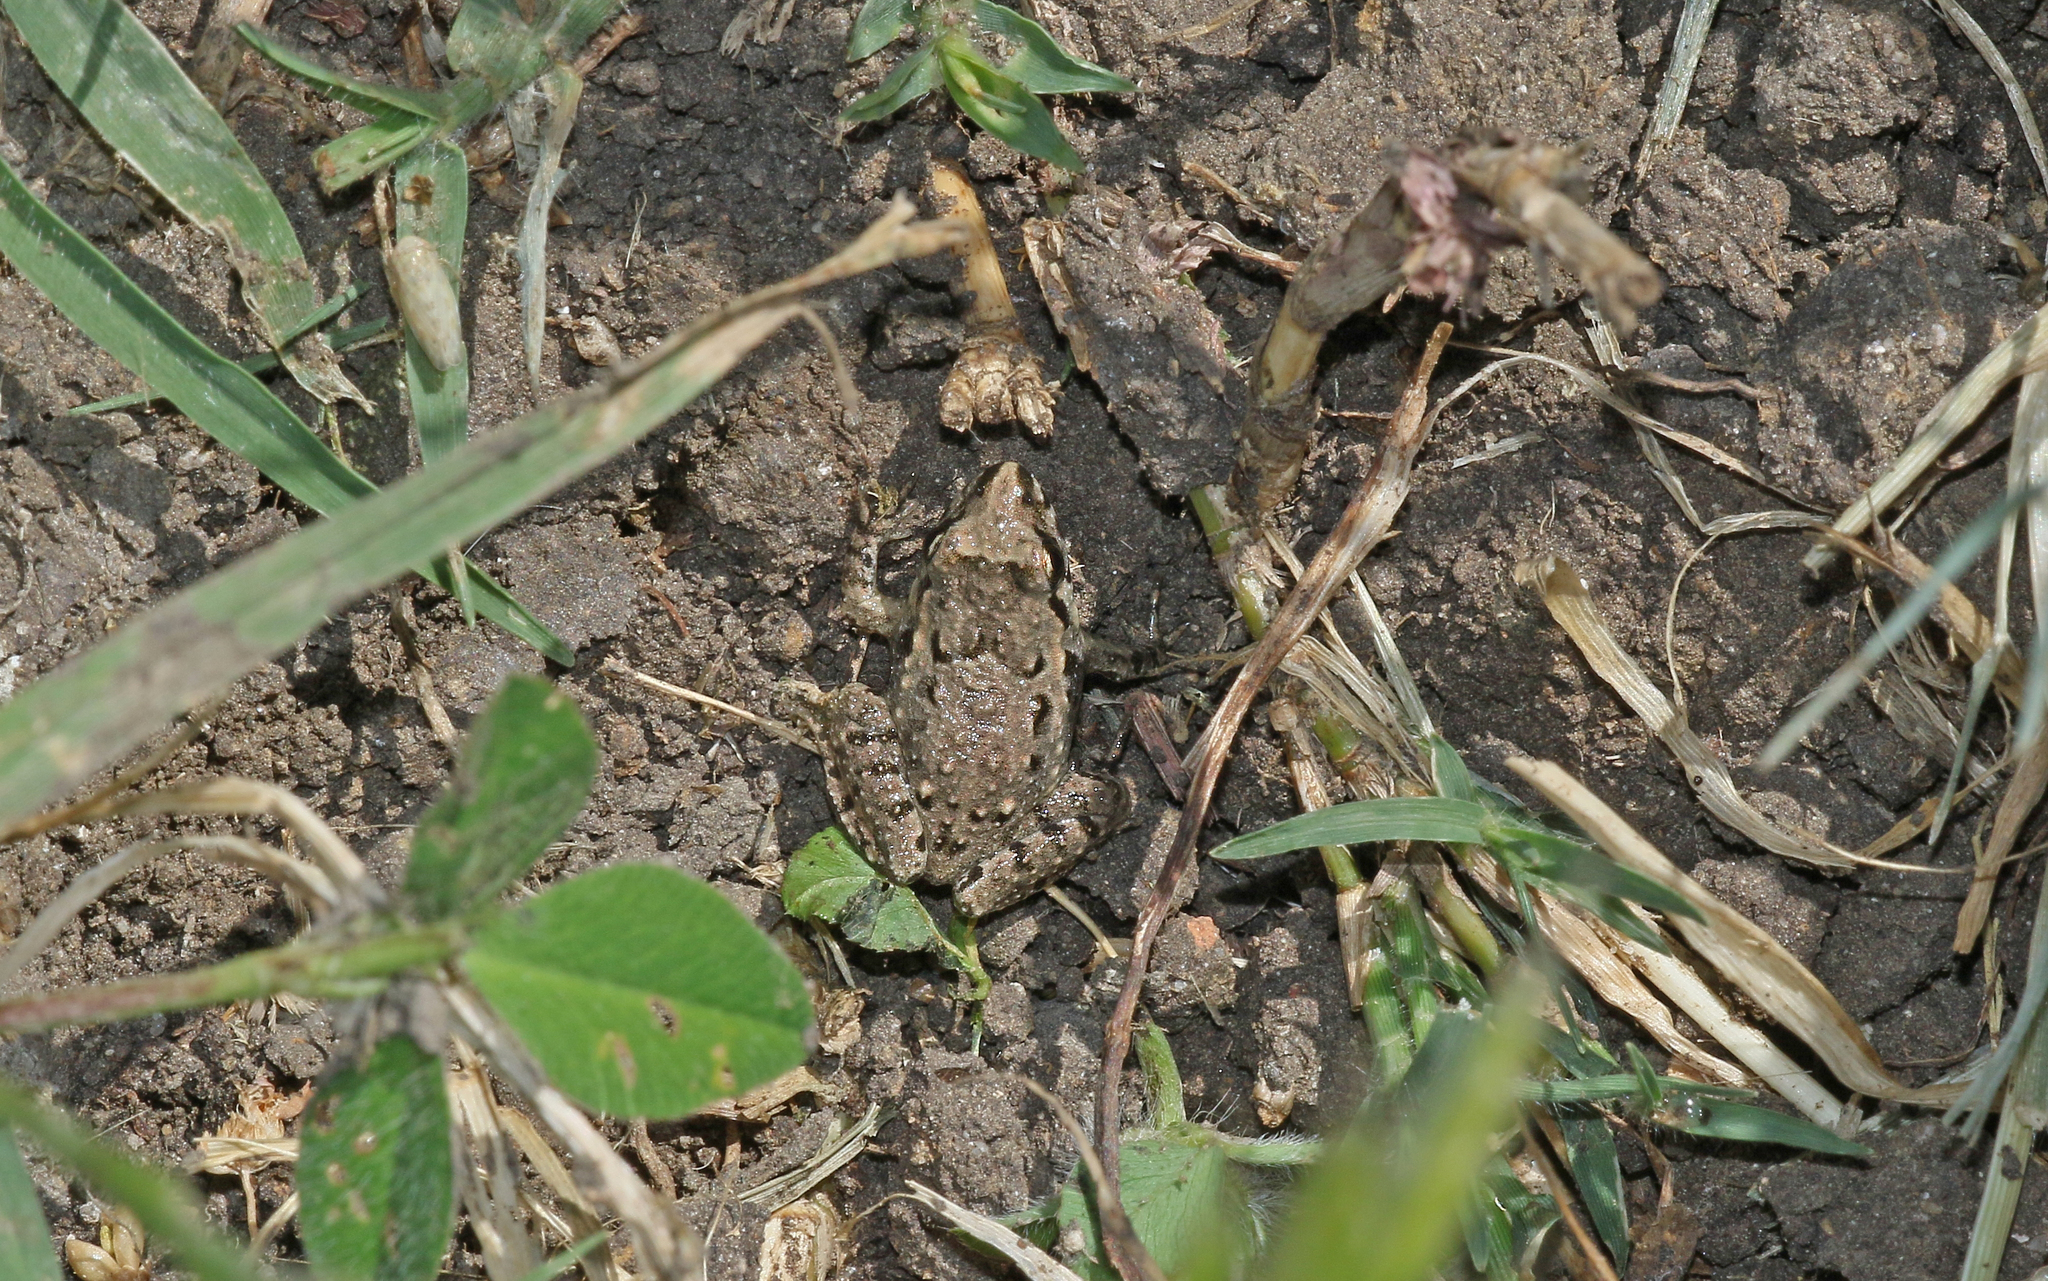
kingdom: Animalia
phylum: Chordata
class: Amphibia
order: Anura
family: Alytidae
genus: Discoglossus
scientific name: Discoglossus jeanneae
